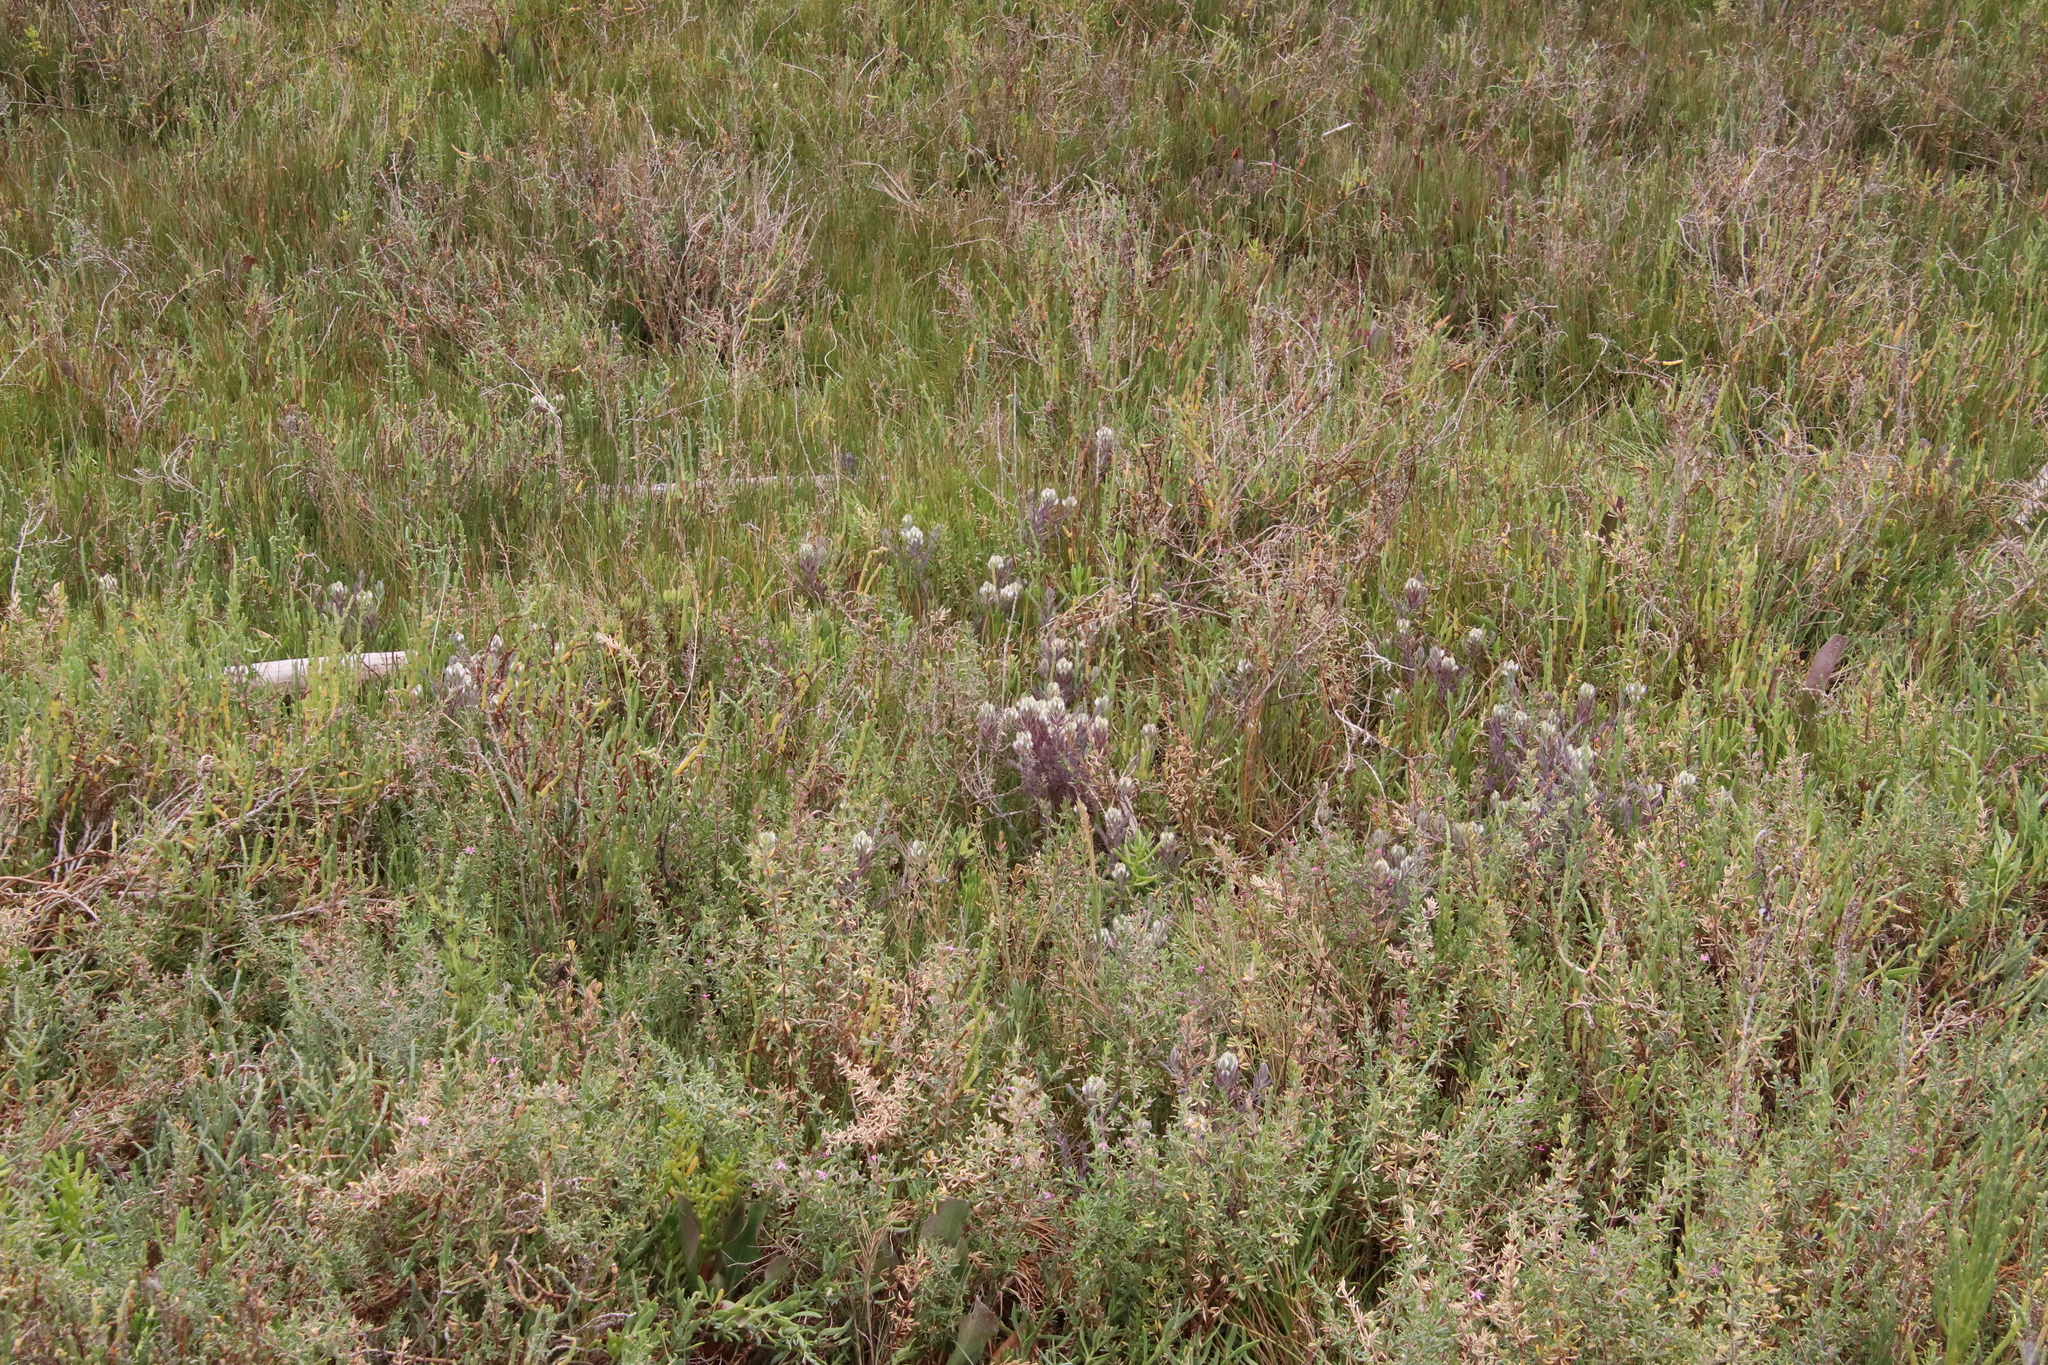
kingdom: Plantae
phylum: Tracheophyta
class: Magnoliopsida
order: Lamiales
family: Orobanchaceae
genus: Chloropyron
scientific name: Chloropyron maritimum
